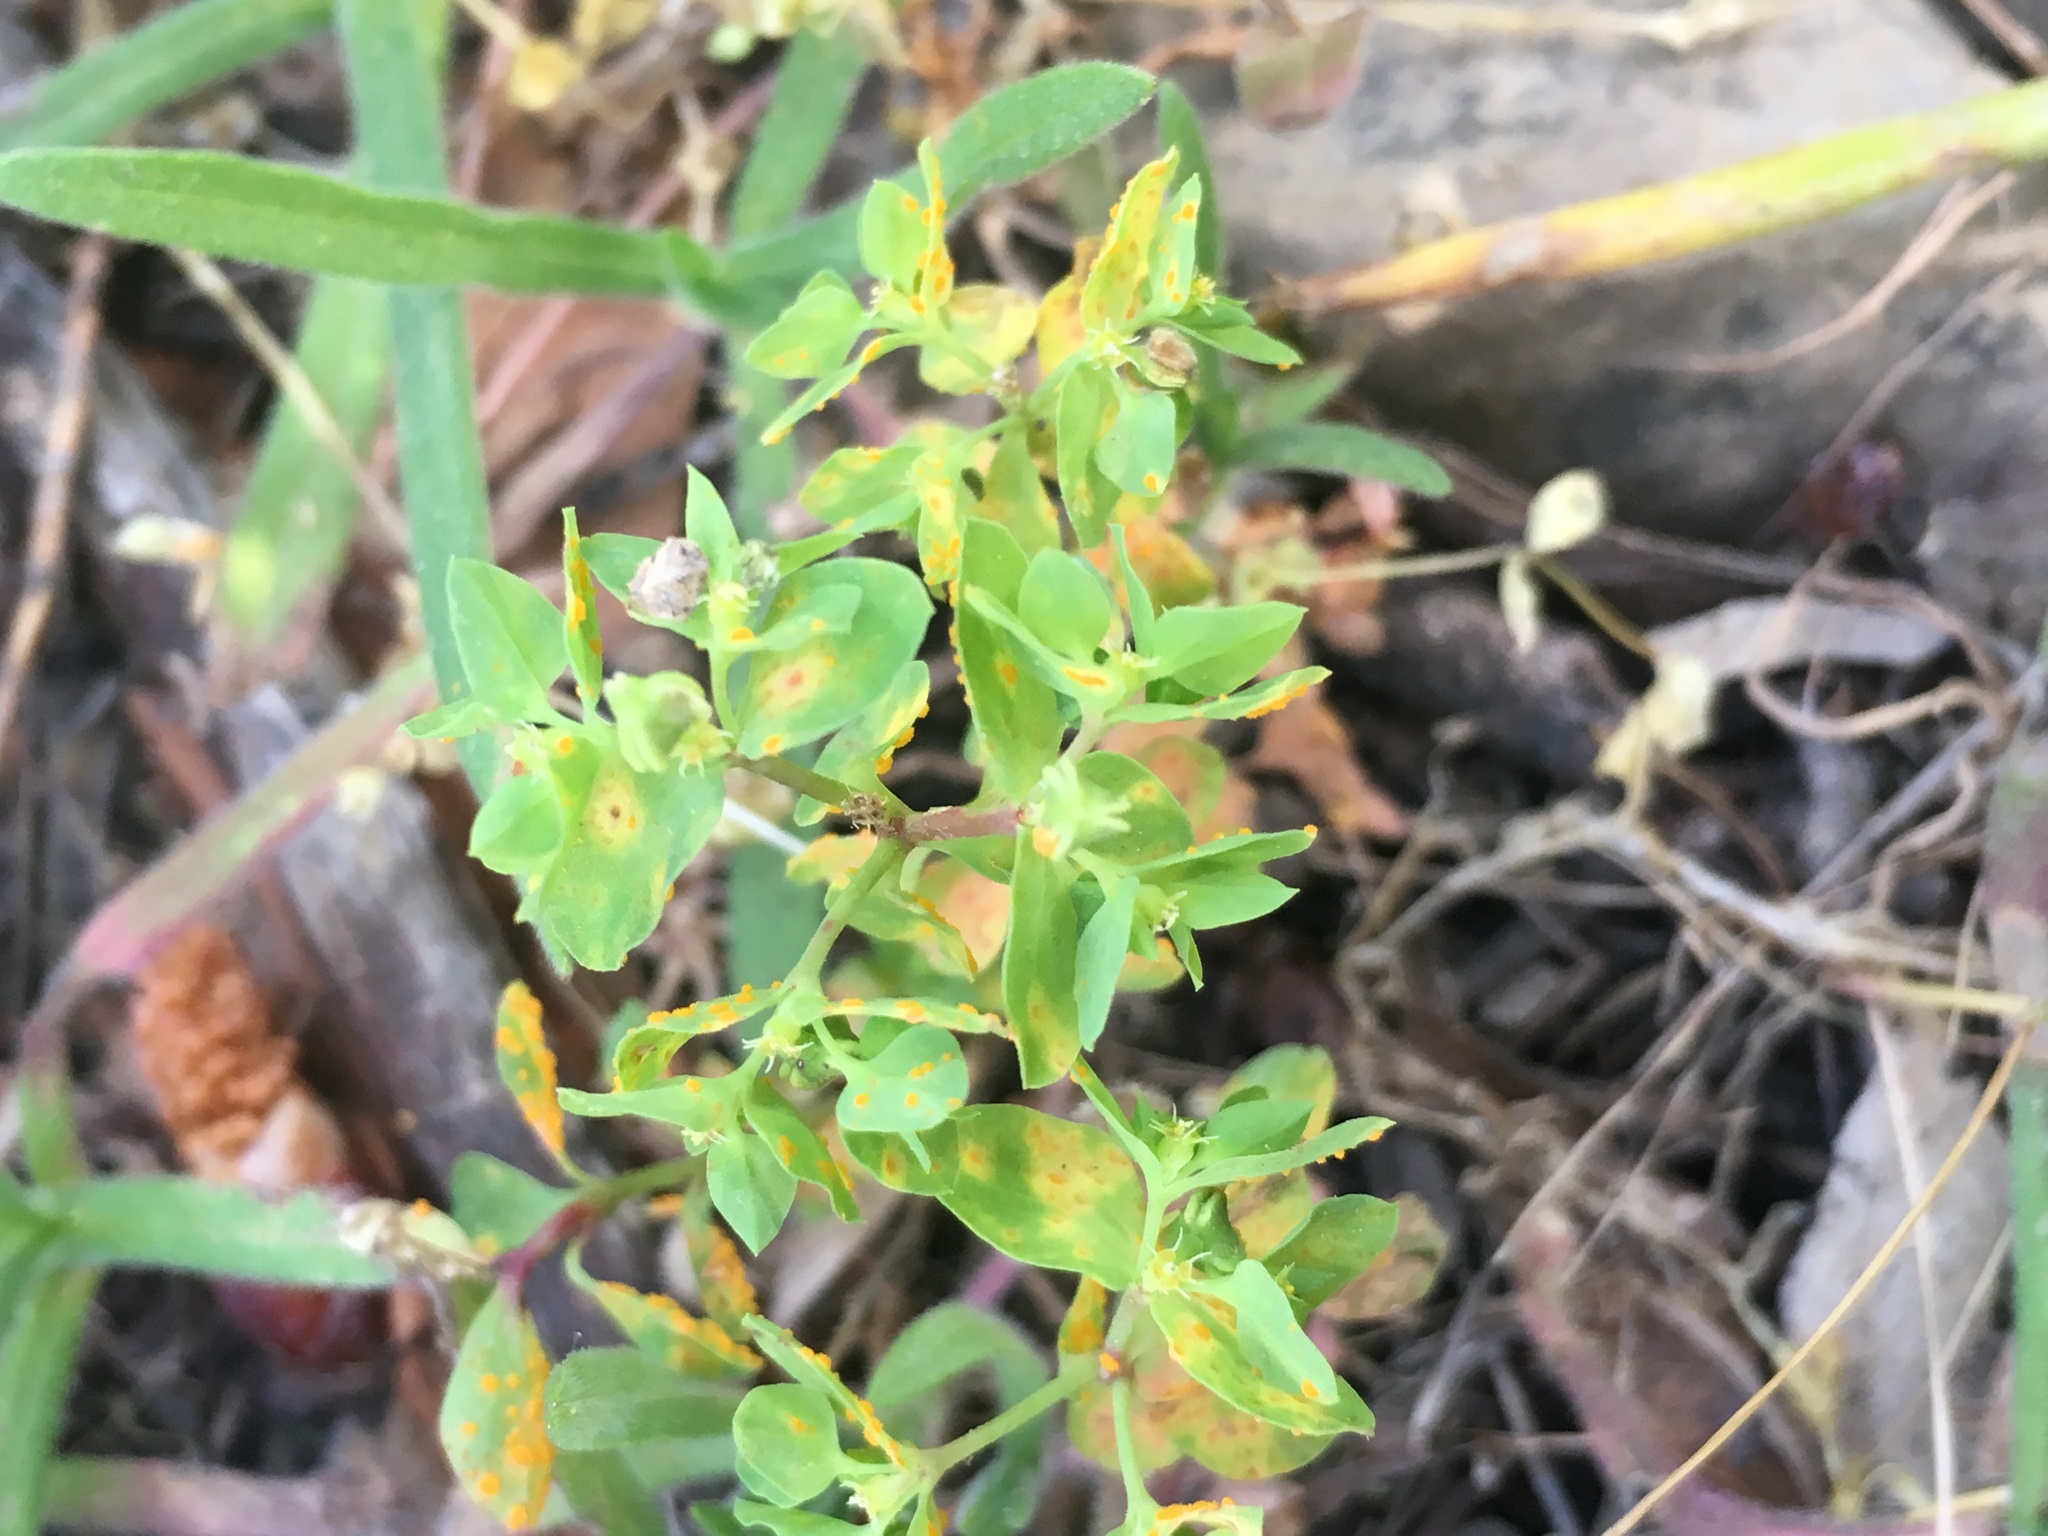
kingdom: Plantae
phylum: Tracheophyta
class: Magnoliopsida
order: Malpighiales
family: Euphorbiaceae
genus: Euphorbia
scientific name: Euphorbia peplus
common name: Petty spurge
